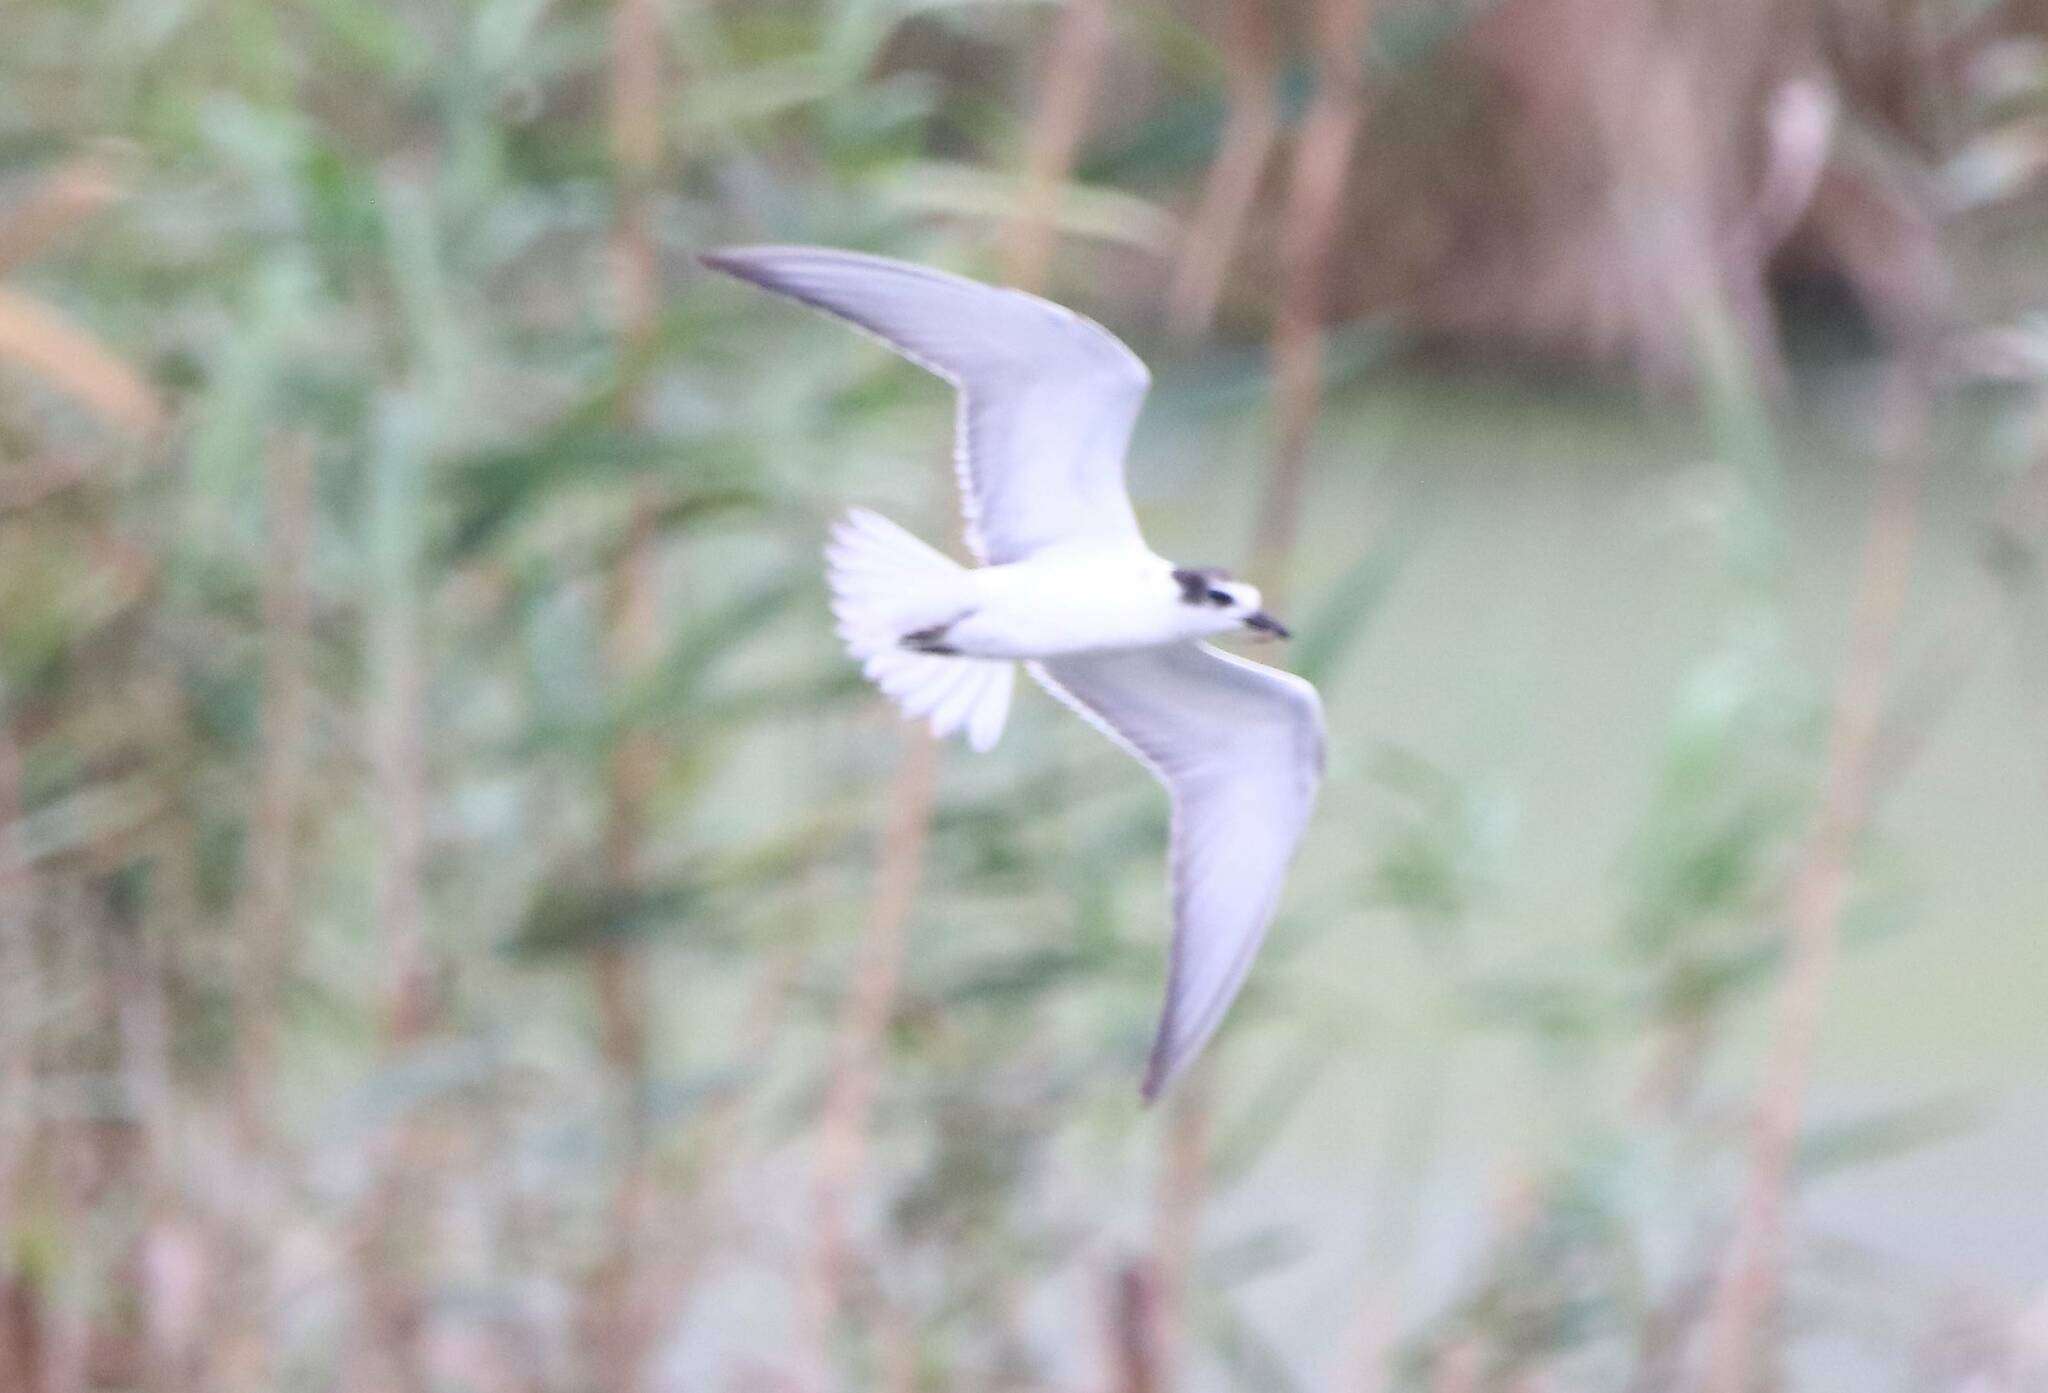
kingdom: Animalia
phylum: Chordata
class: Aves
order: Charadriiformes
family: Laridae
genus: Chlidonias
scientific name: Chlidonias hybrida
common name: Whiskered tern
